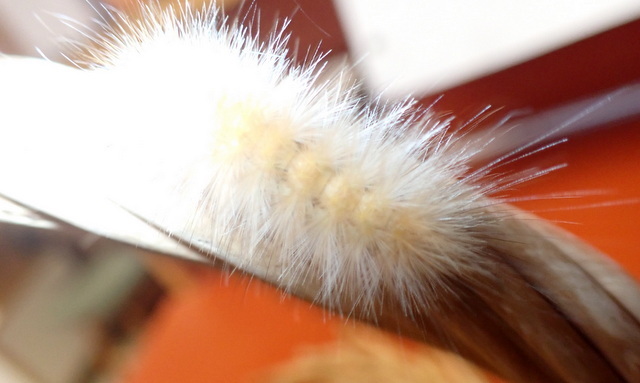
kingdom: Animalia
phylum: Arthropoda
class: Insecta
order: Lepidoptera
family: Erebidae
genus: Spilosoma
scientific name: Spilosoma virginica
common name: Virginia tiger moth
